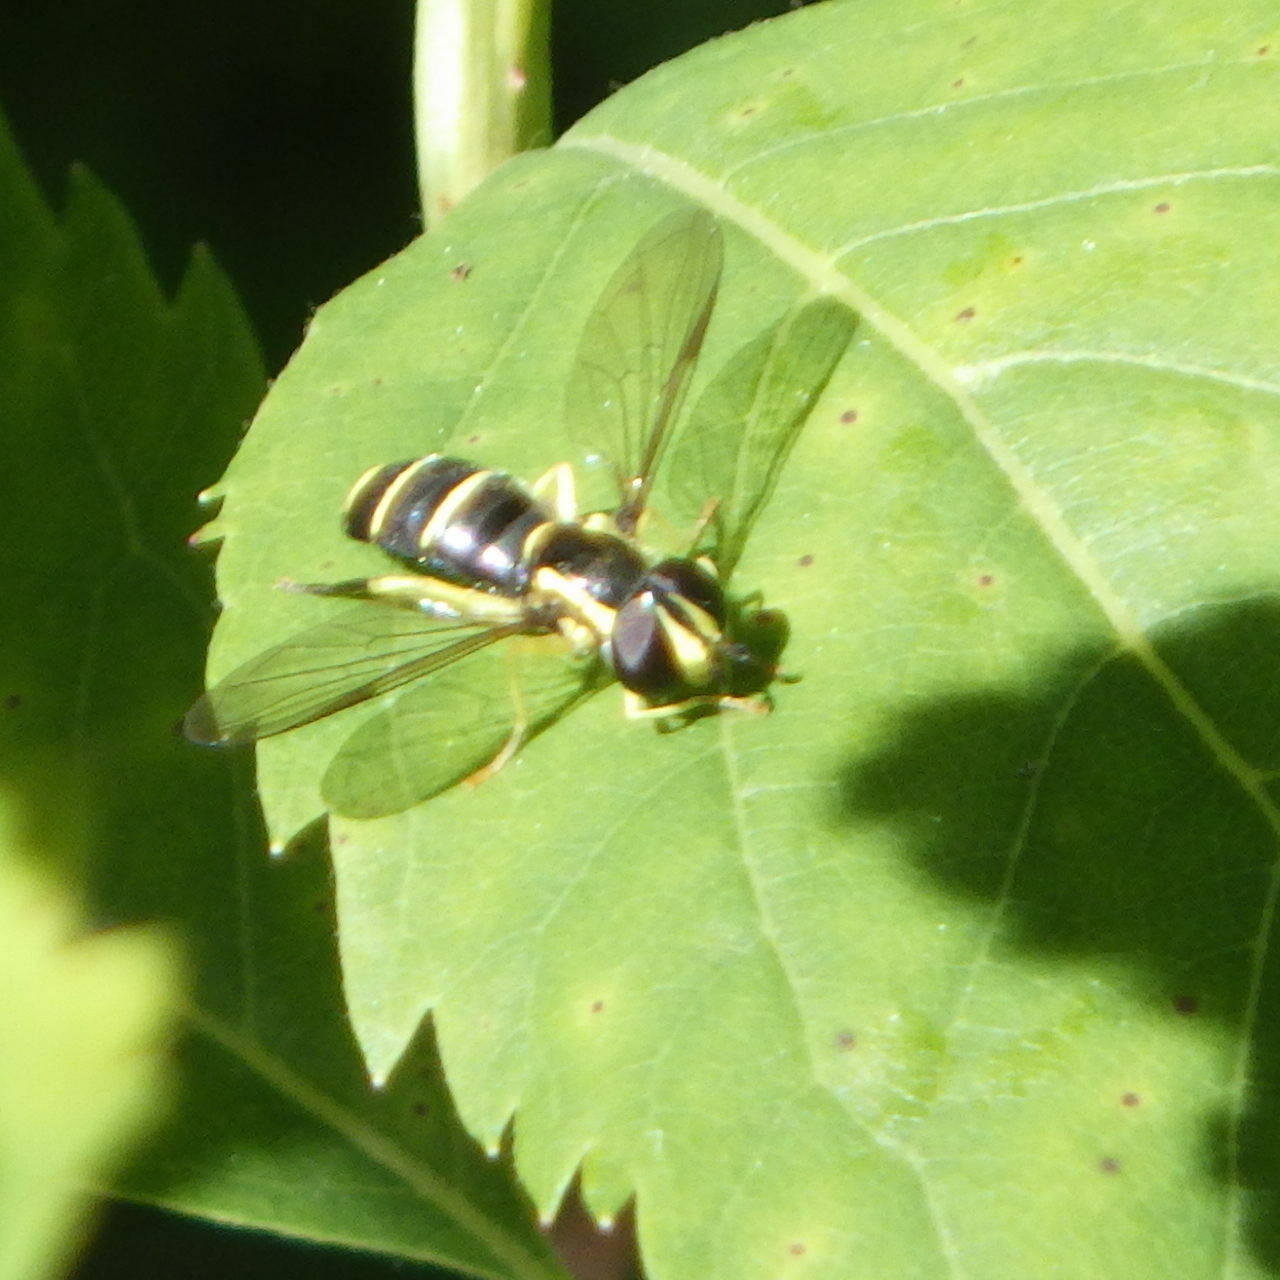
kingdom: Animalia
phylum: Arthropoda
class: Insecta
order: Diptera
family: Syrphidae
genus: Philhelius
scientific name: Philhelius flavipes
